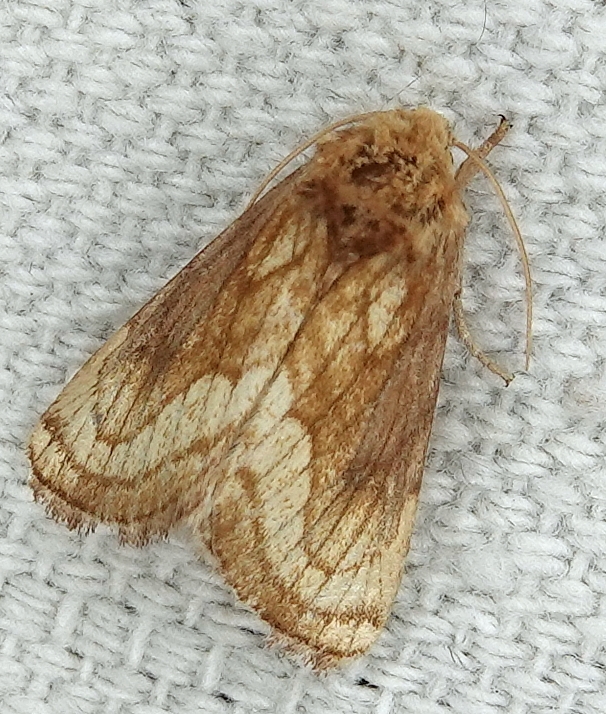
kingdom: Animalia
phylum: Arthropoda
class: Insecta
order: Lepidoptera
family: Noctuidae
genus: Nocloa
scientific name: Nocloa duplicatus
